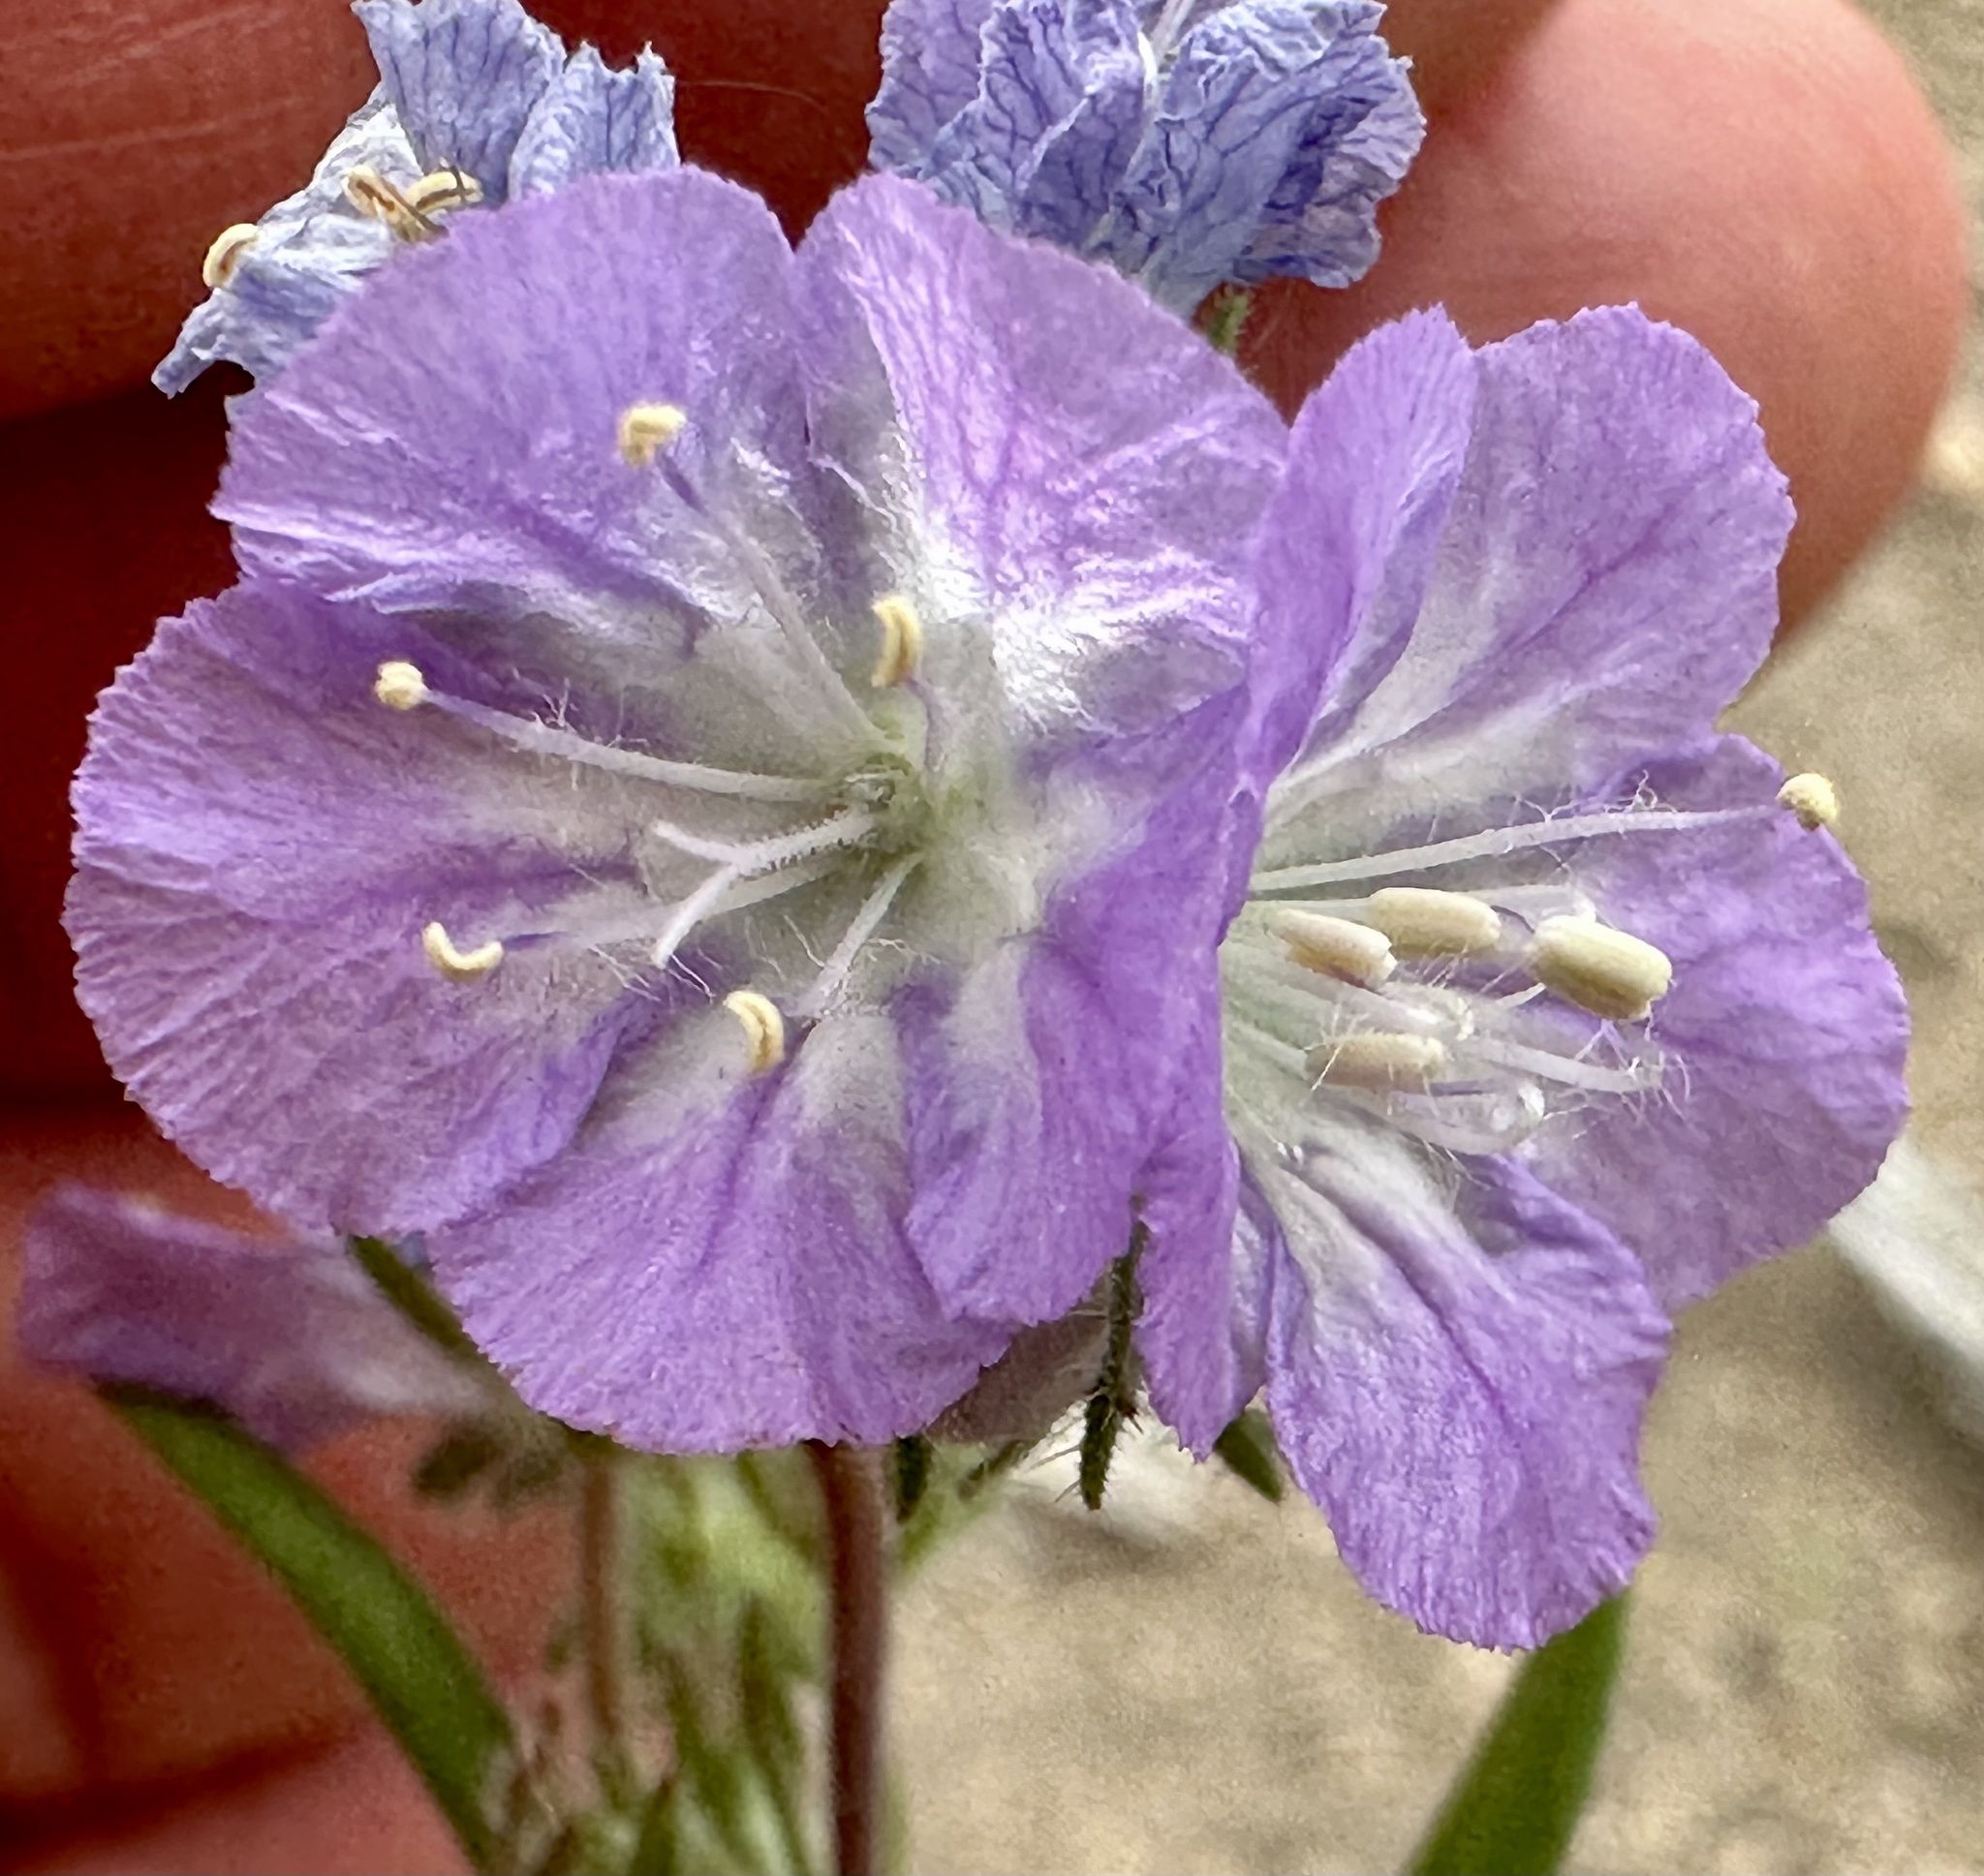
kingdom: Plantae
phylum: Tracheophyta
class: Magnoliopsida
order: Boraginales
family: Hydrophyllaceae
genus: Phacelia
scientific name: Phacelia linearis
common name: Linear-leaved phacelia
